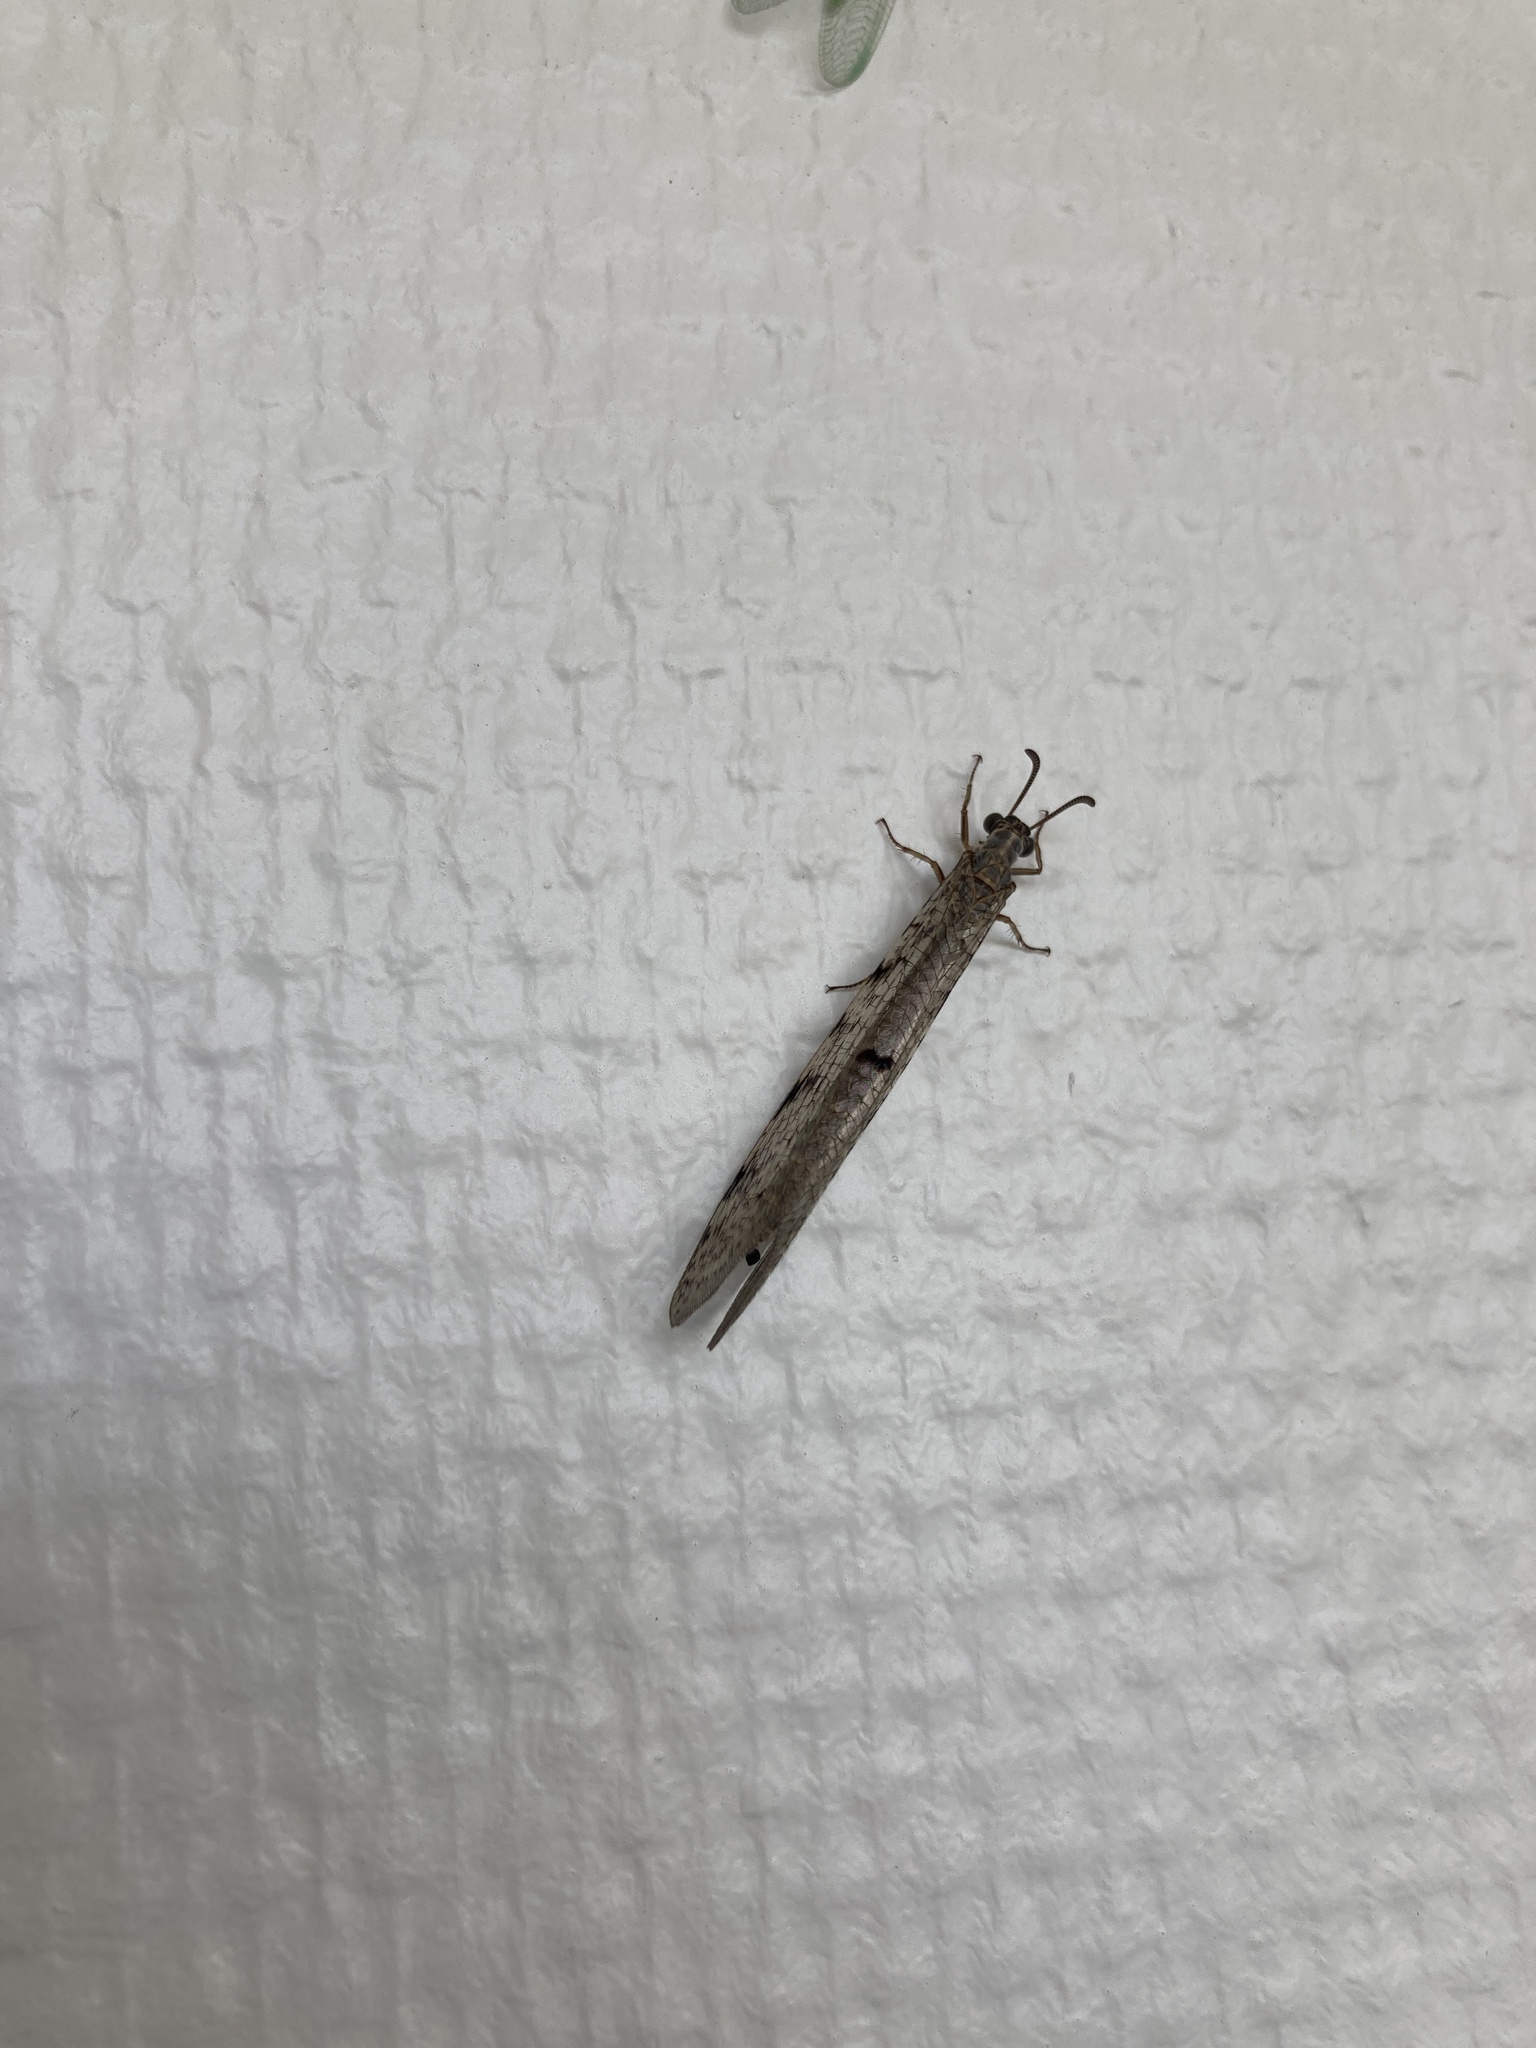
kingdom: Animalia
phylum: Arthropoda
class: Insecta
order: Neuroptera
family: Myrmeleontidae
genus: Euroleon
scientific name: Euroleon nostras
